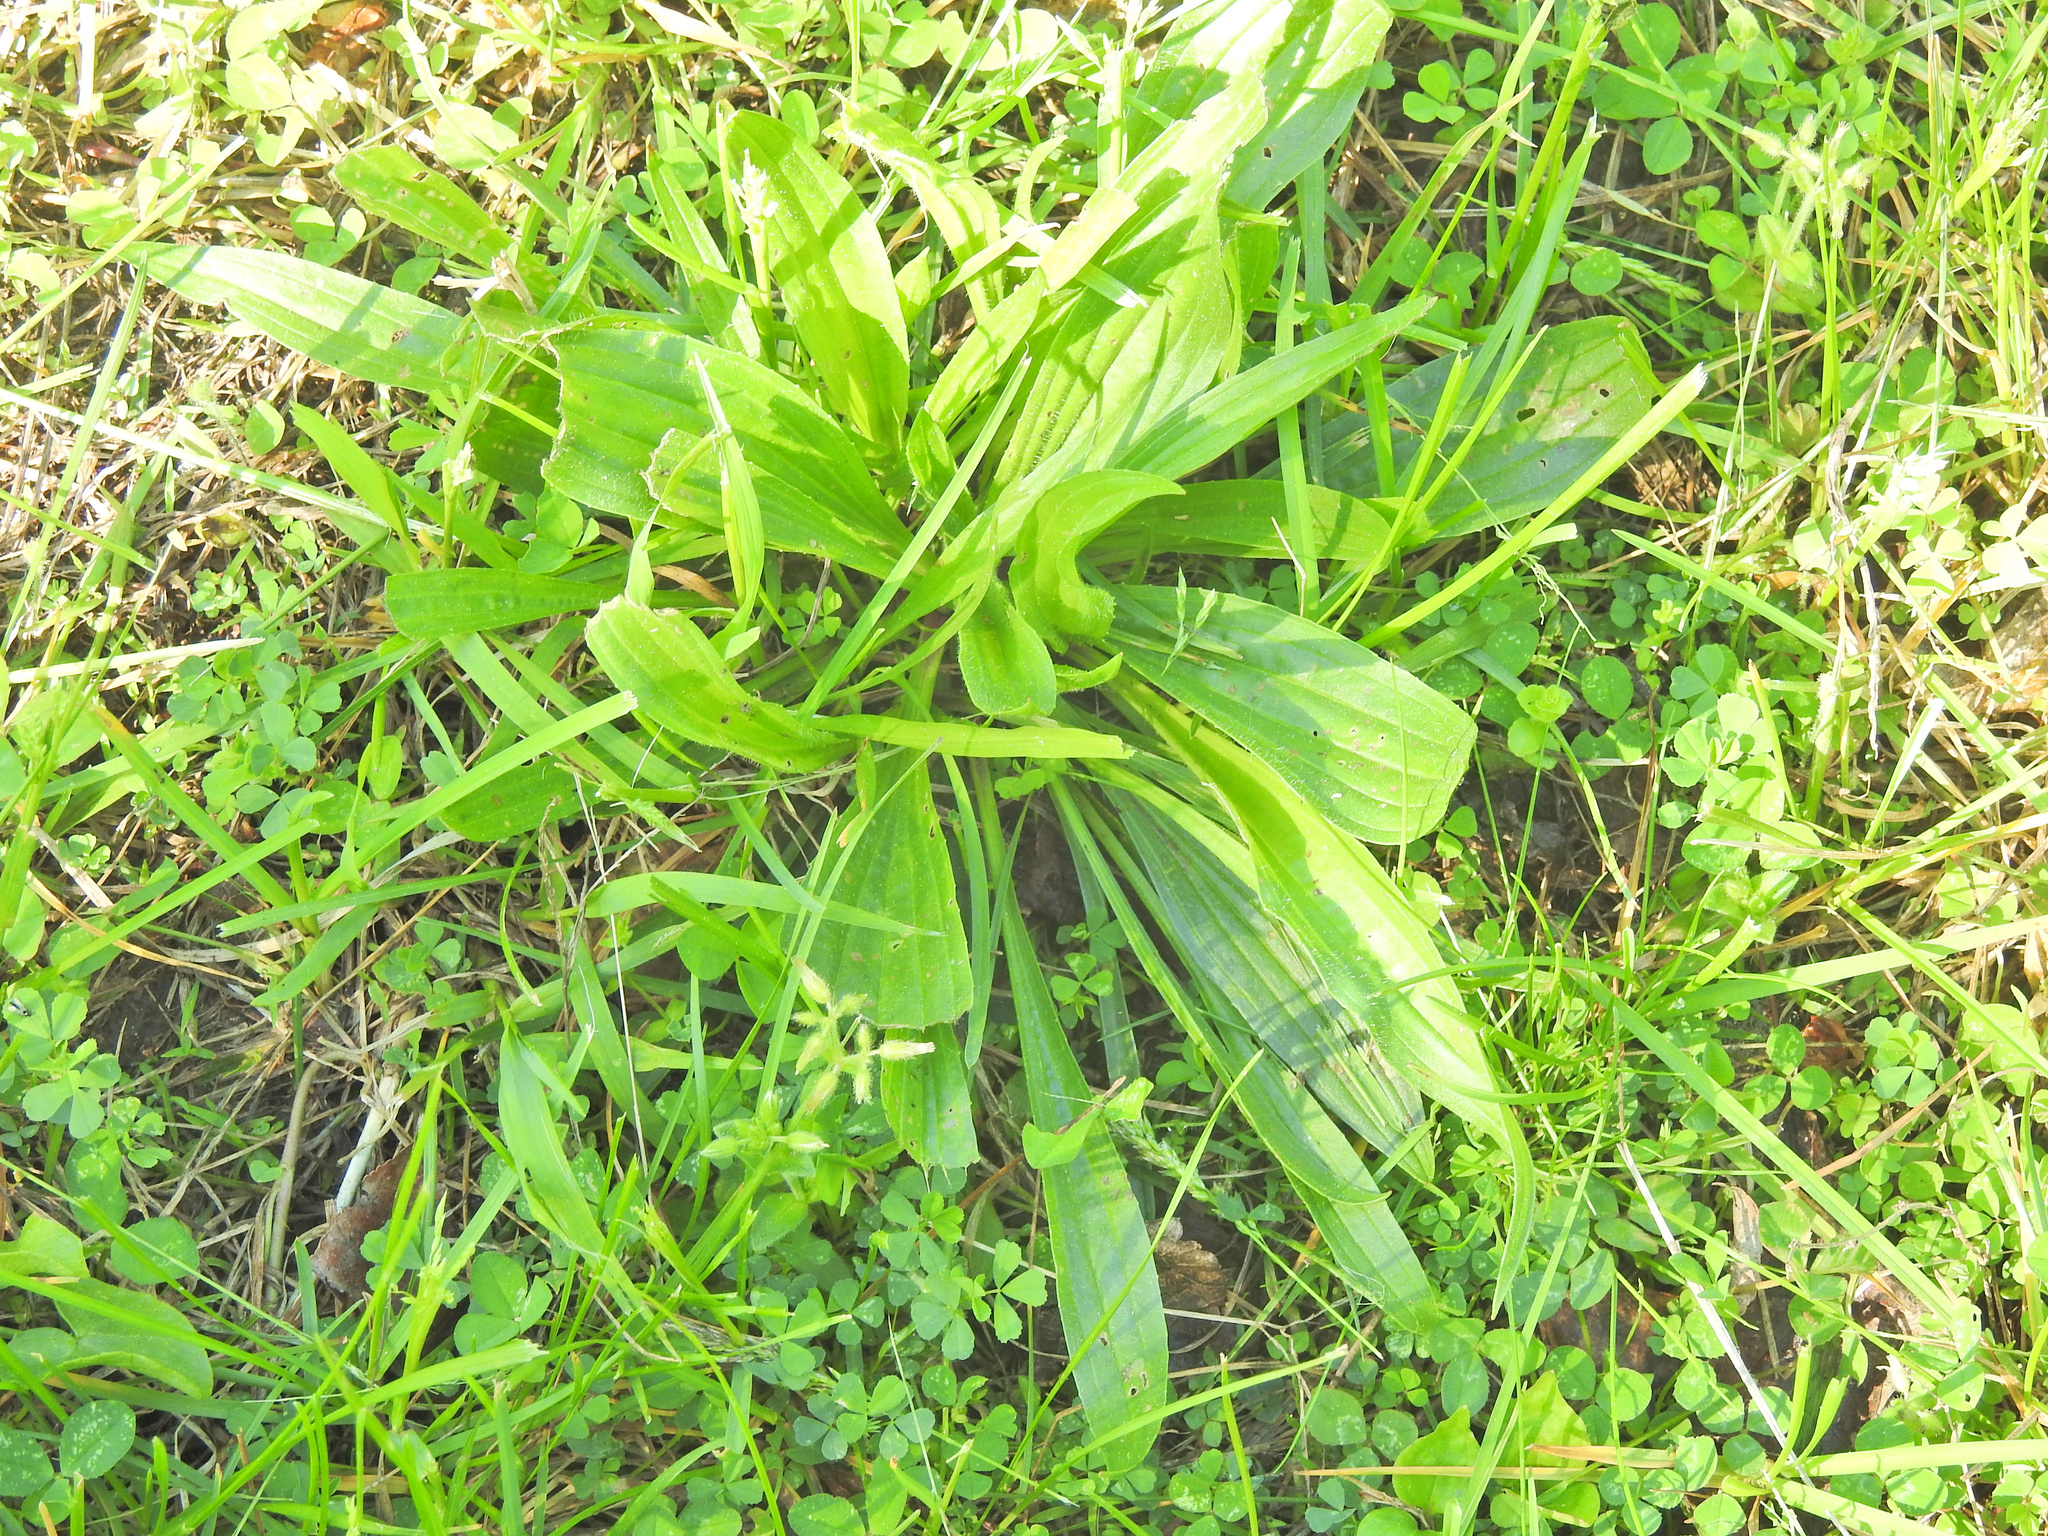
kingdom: Plantae
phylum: Tracheophyta
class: Magnoliopsida
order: Lamiales
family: Plantaginaceae
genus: Plantago
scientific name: Plantago lanceolata
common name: Ribwort plantain
